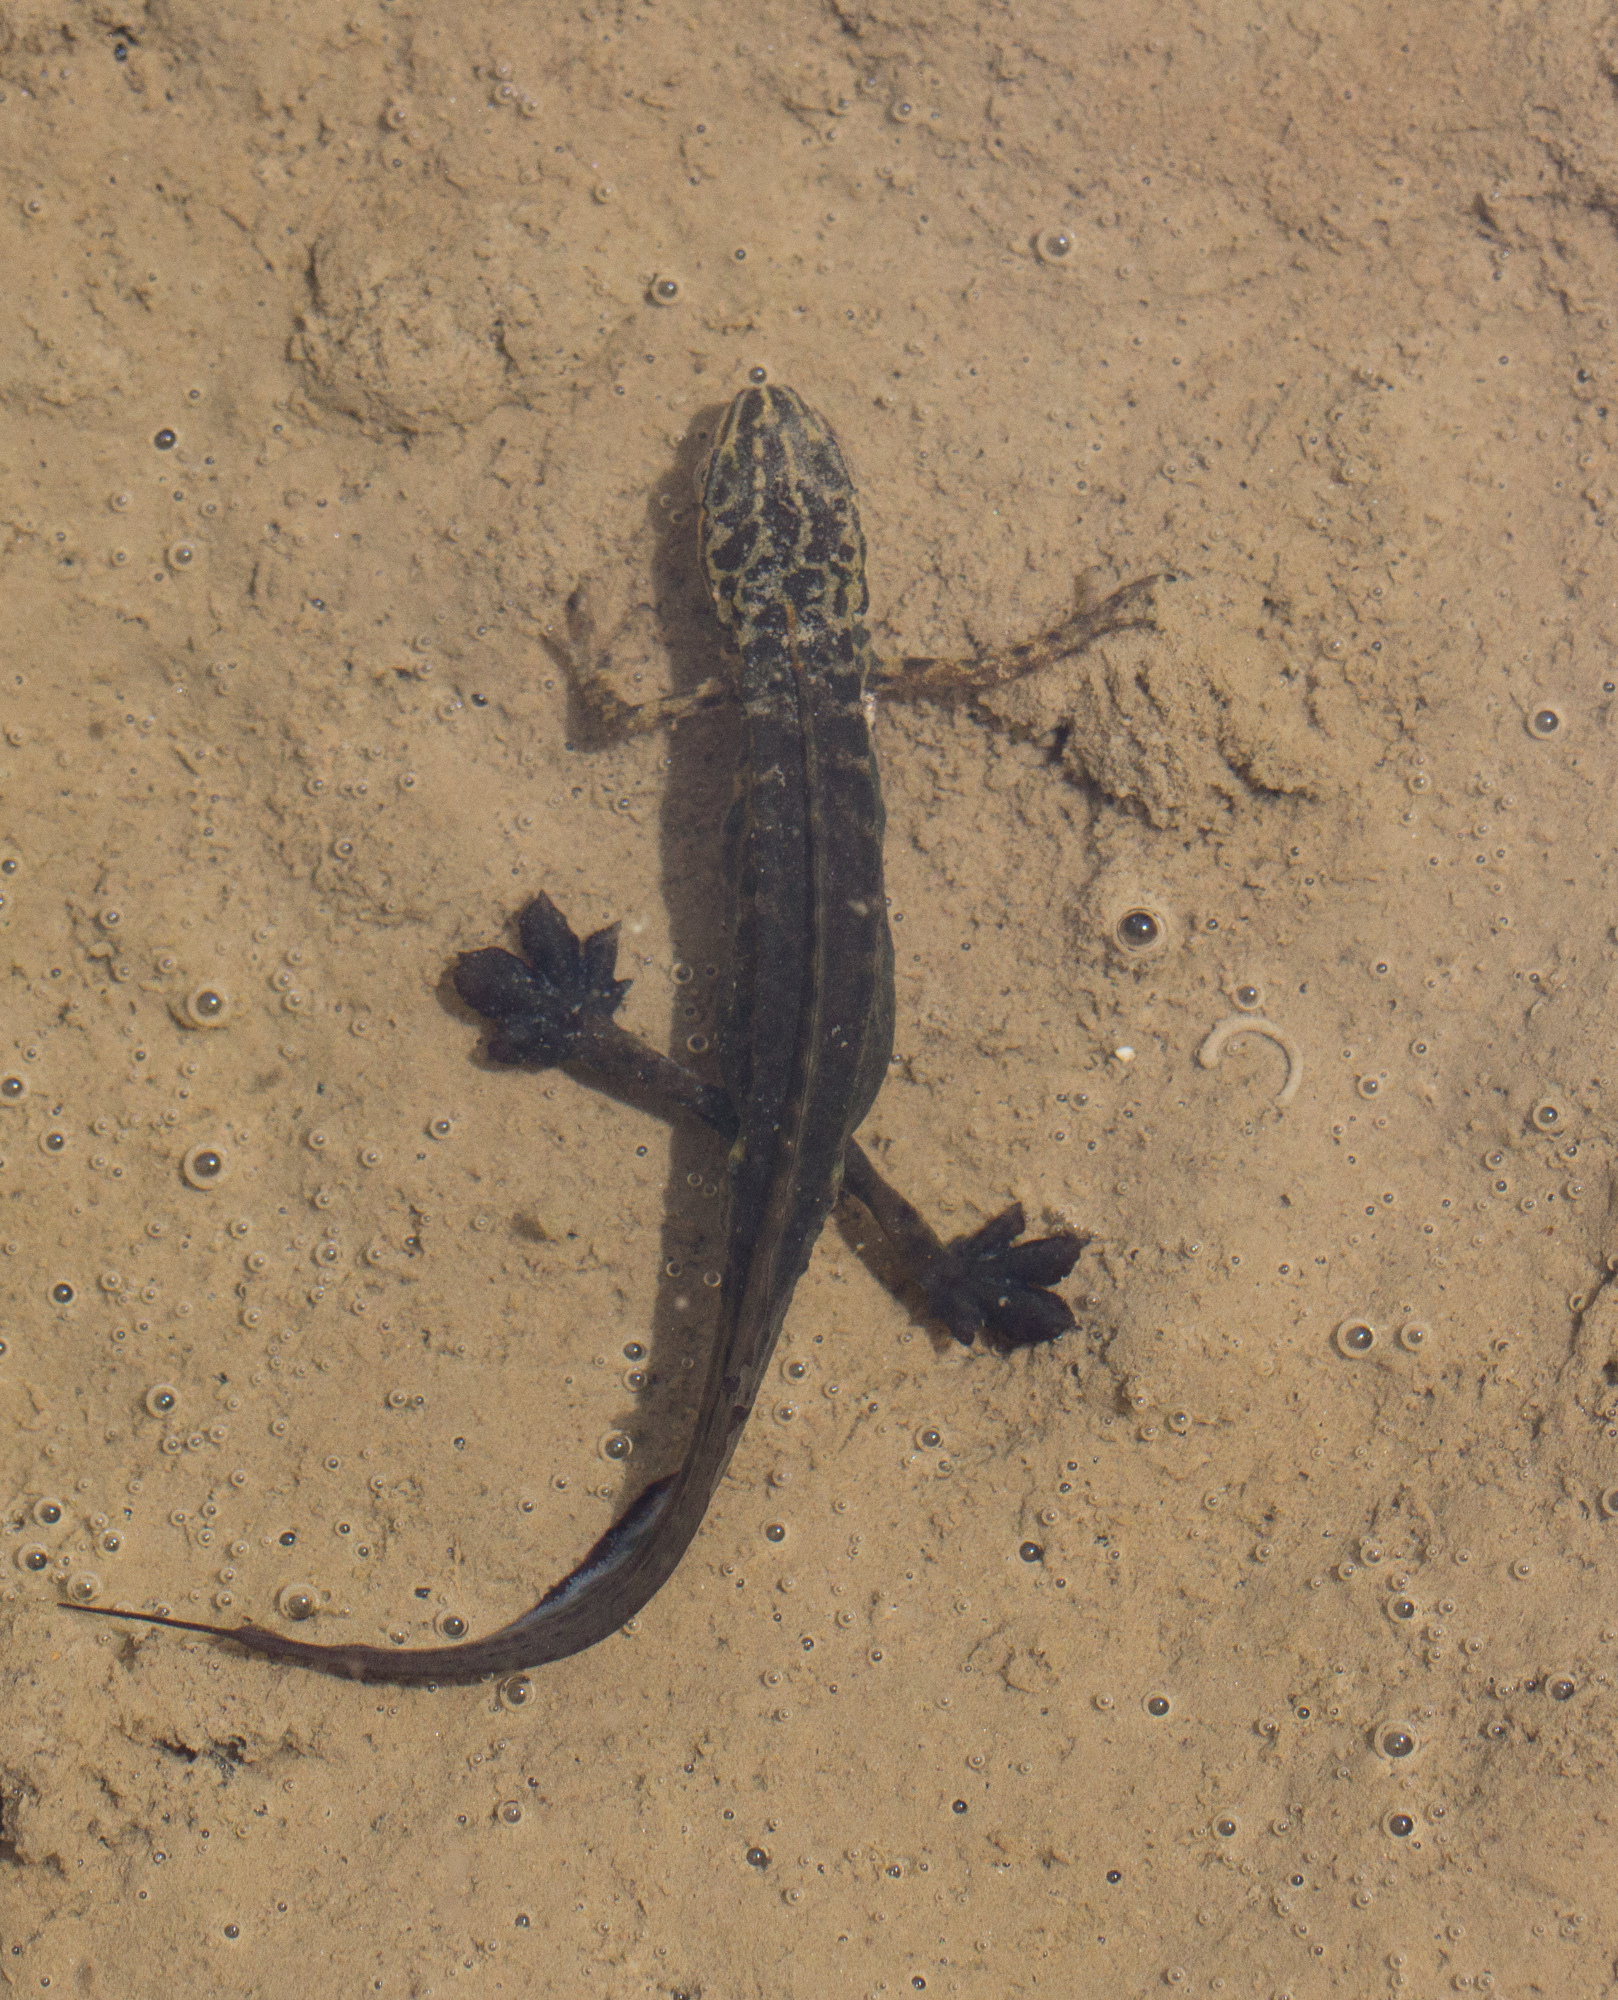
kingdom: Animalia
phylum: Chordata
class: Amphibia
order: Caudata
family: Salamandridae
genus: Lissotriton
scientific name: Lissotriton graecus
